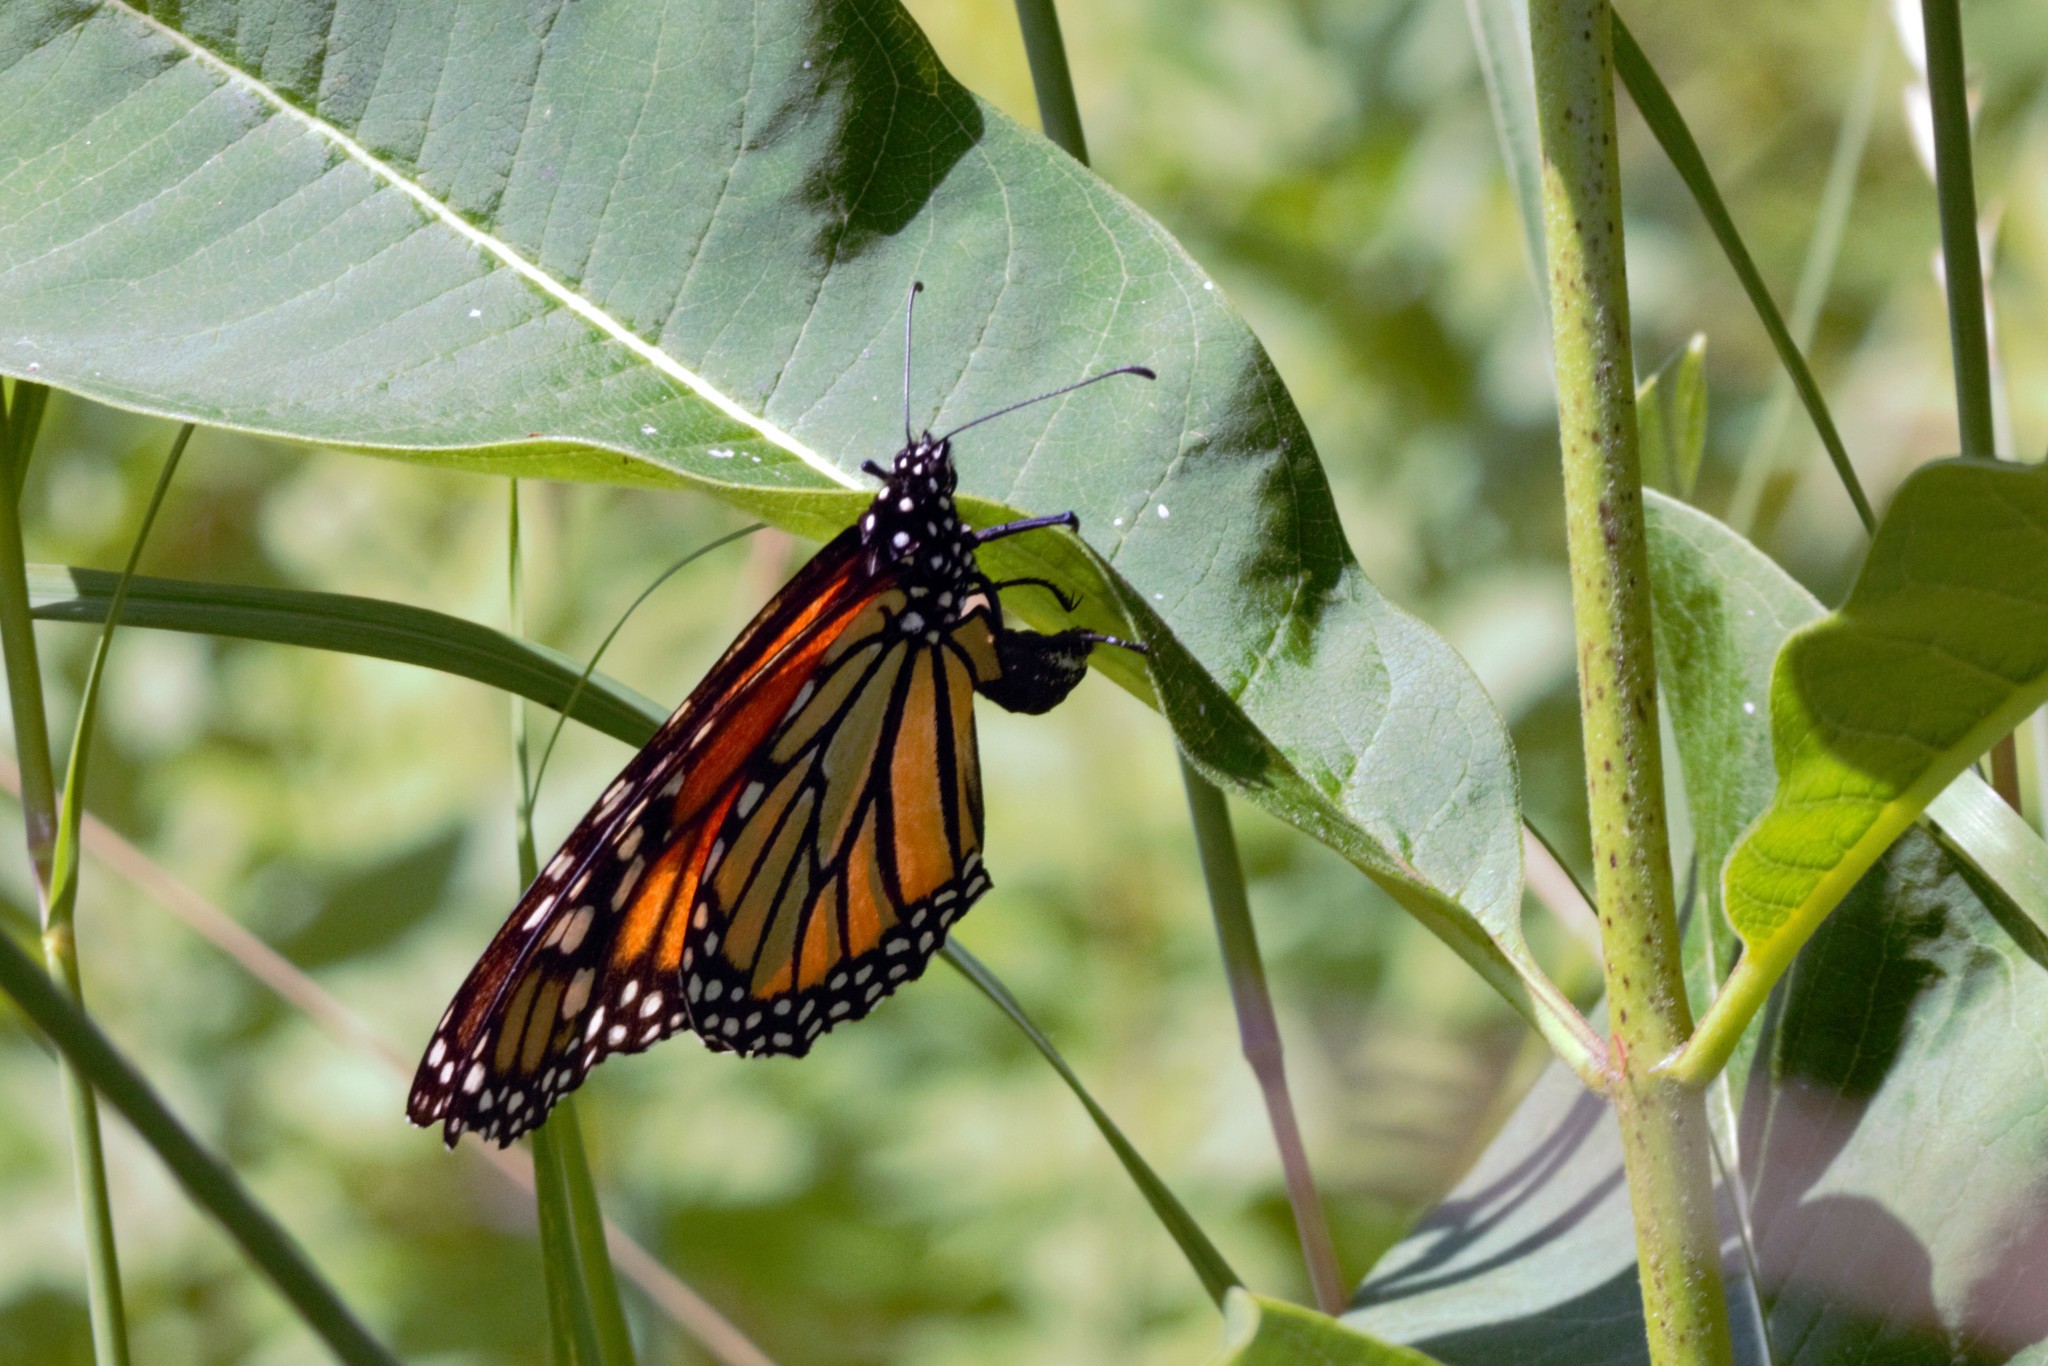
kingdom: Animalia
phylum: Arthropoda
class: Insecta
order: Lepidoptera
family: Nymphalidae
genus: Danaus
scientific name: Danaus plexippus
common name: Monarch
